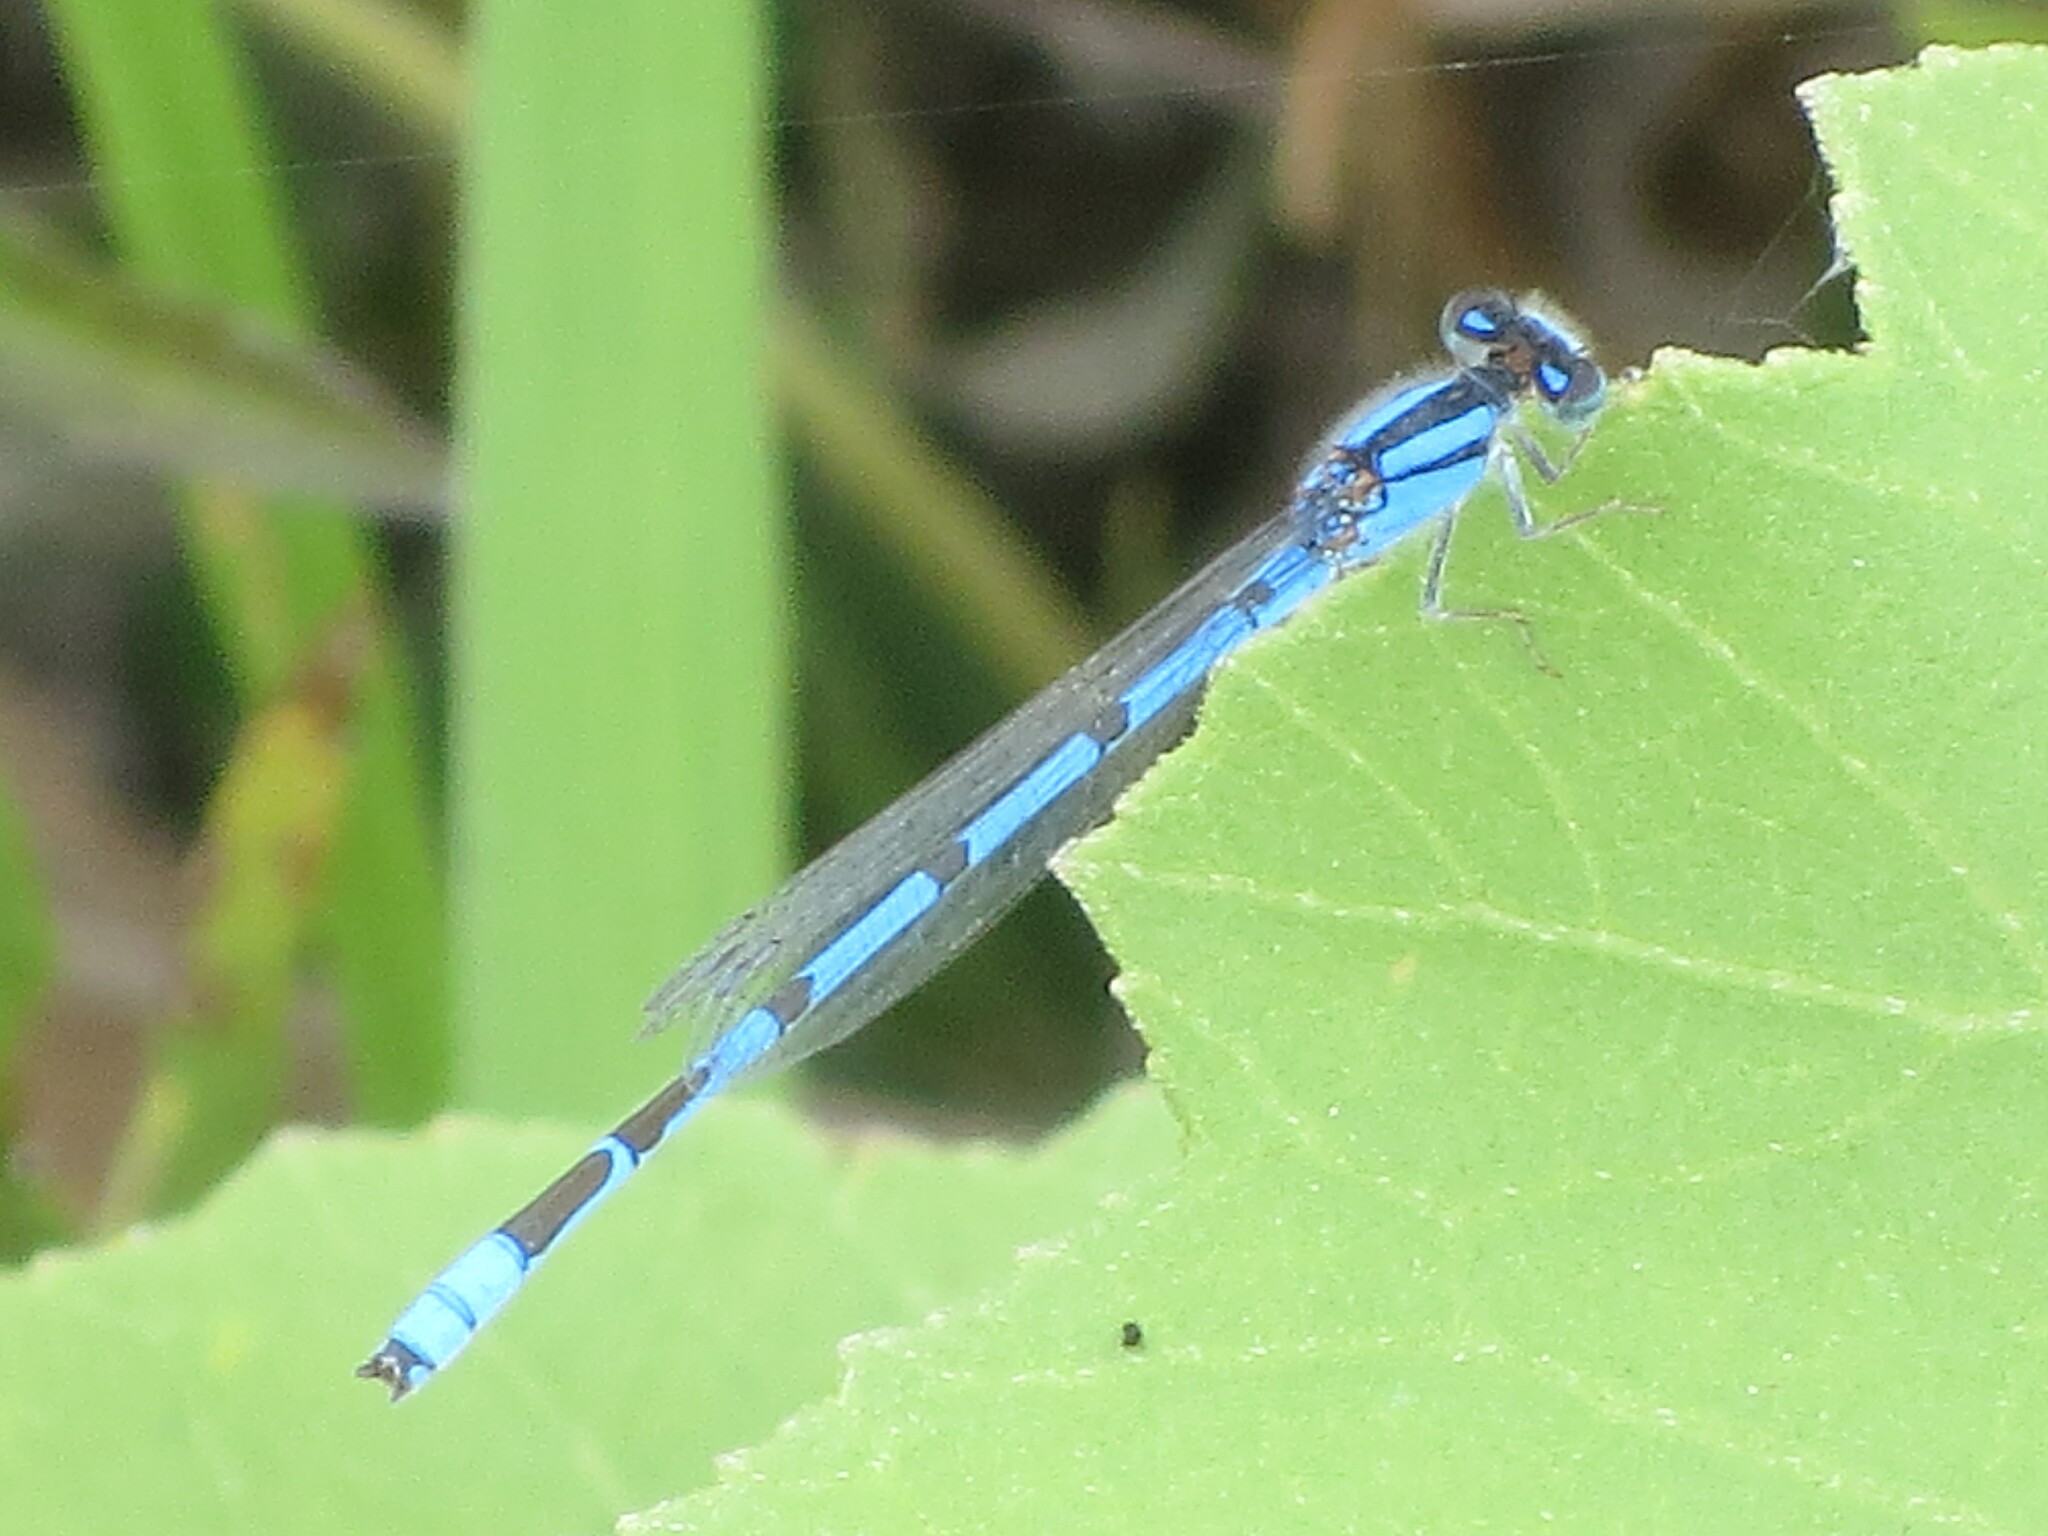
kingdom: Animalia
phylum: Arthropoda
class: Insecta
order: Odonata
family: Coenagrionidae
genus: Enallagma
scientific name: Enallagma civile
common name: Damselfly
